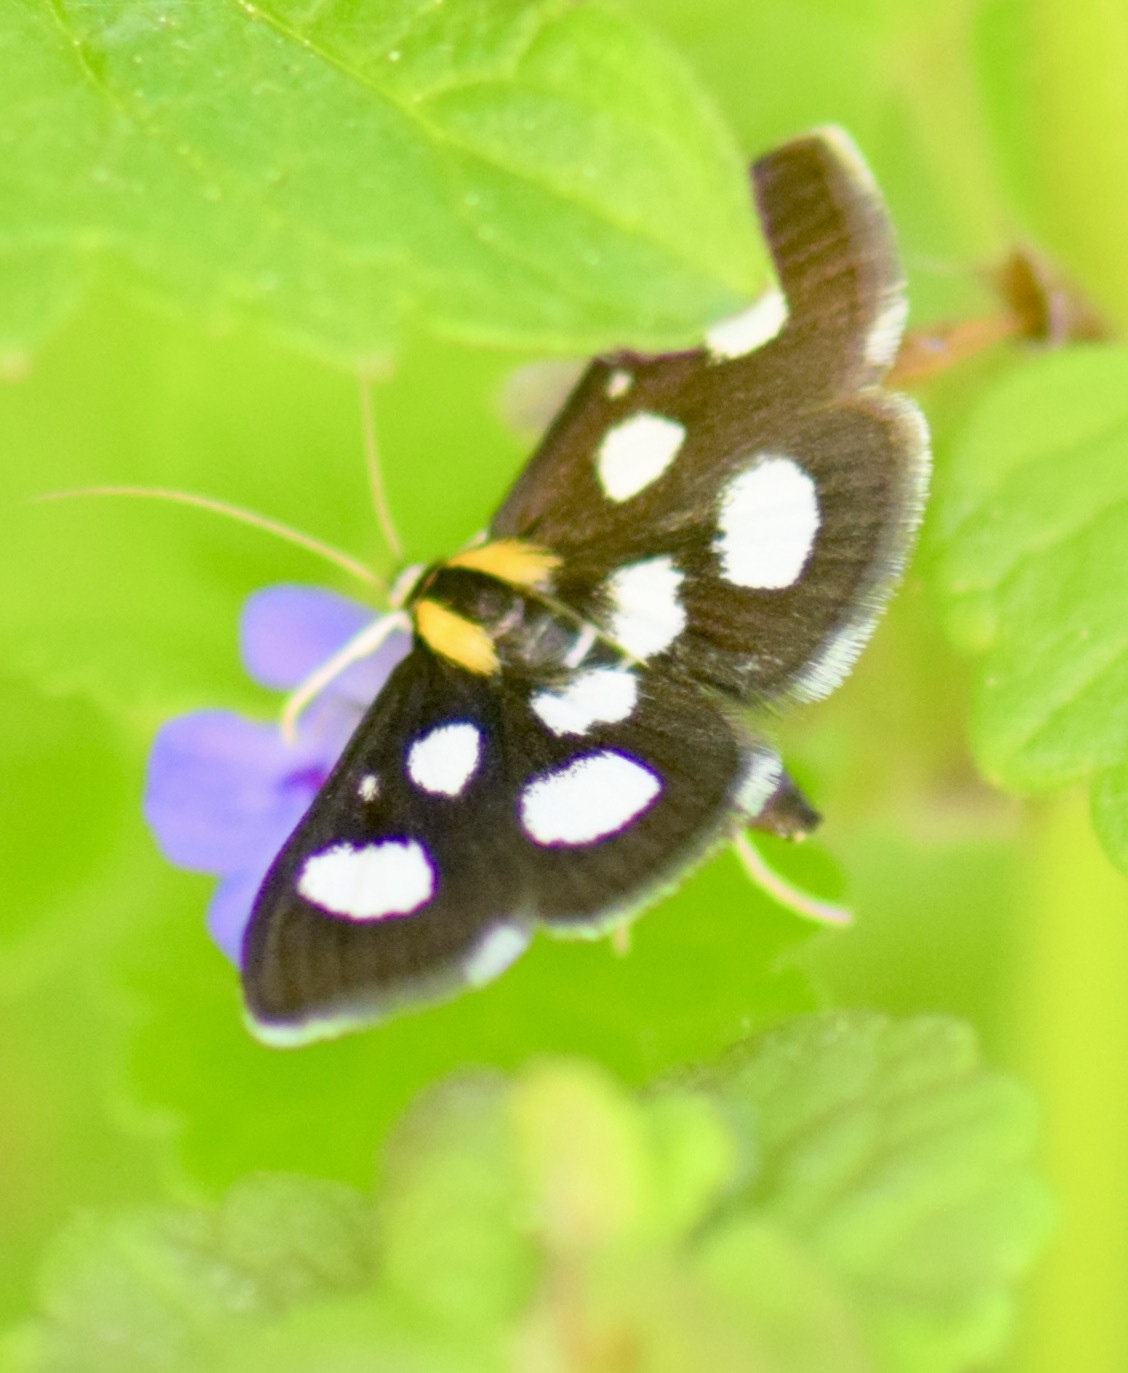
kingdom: Animalia
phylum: Arthropoda
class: Insecta
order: Lepidoptera
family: Crambidae
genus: Anania
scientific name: Anania funebris
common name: White-spotted sable moth
